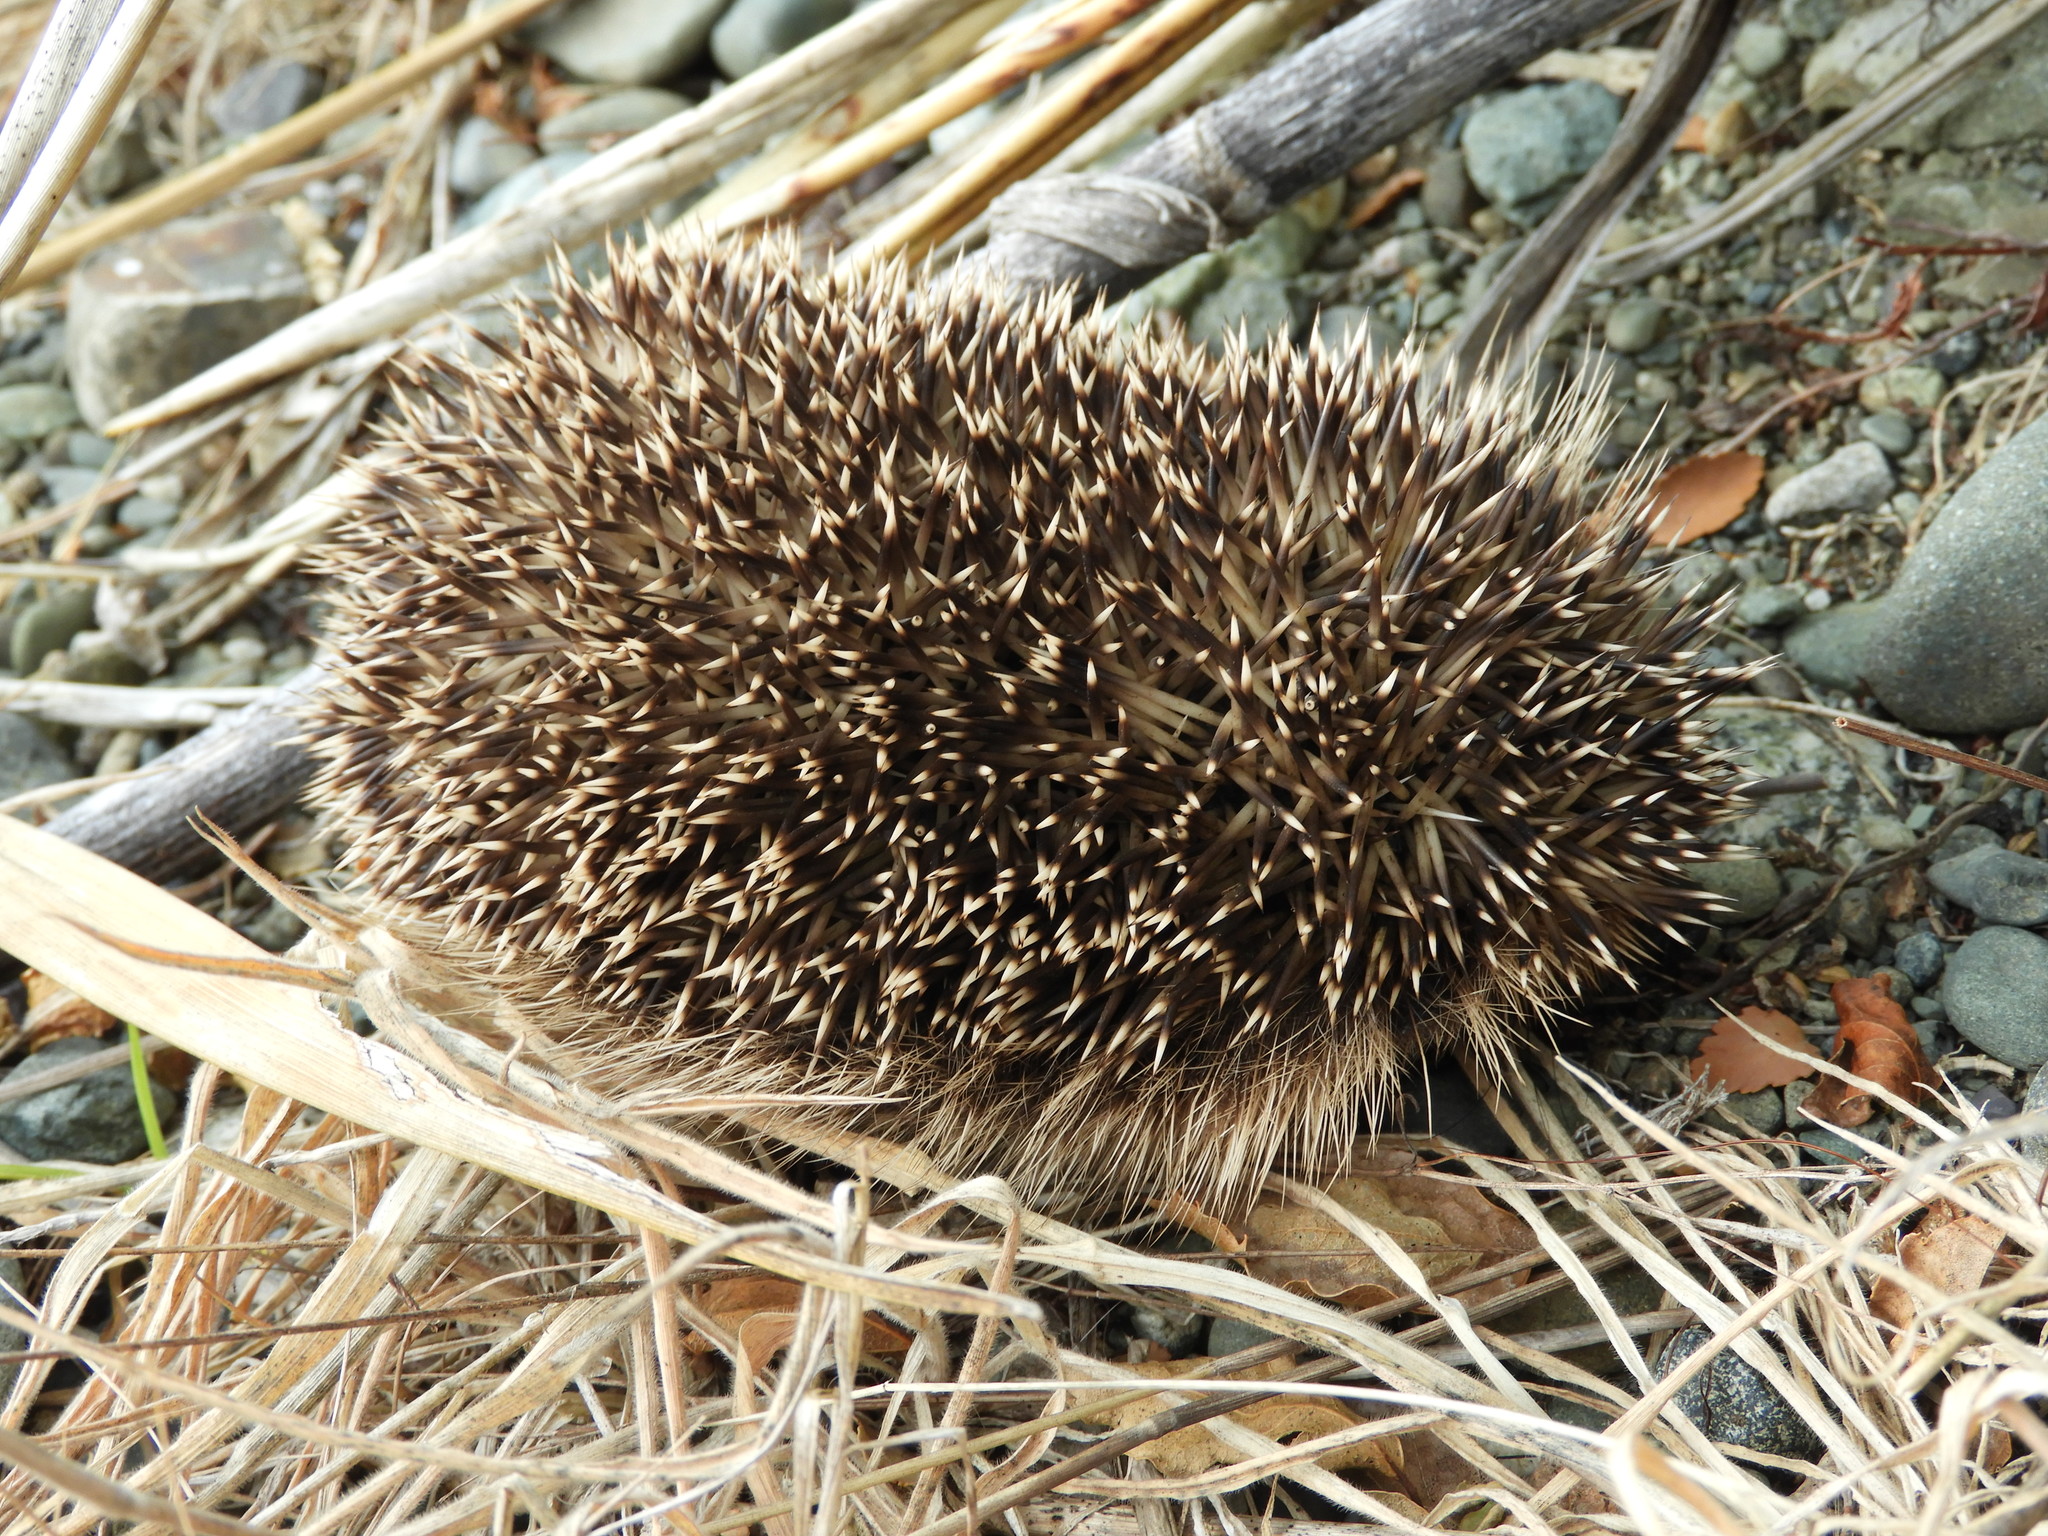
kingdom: Animalia
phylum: Chordata
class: Mammalia
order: Erinaceomorpha
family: Erinaceidae
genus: Erinaceus
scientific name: Erinaceus europaeus
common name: West european hedgehog
